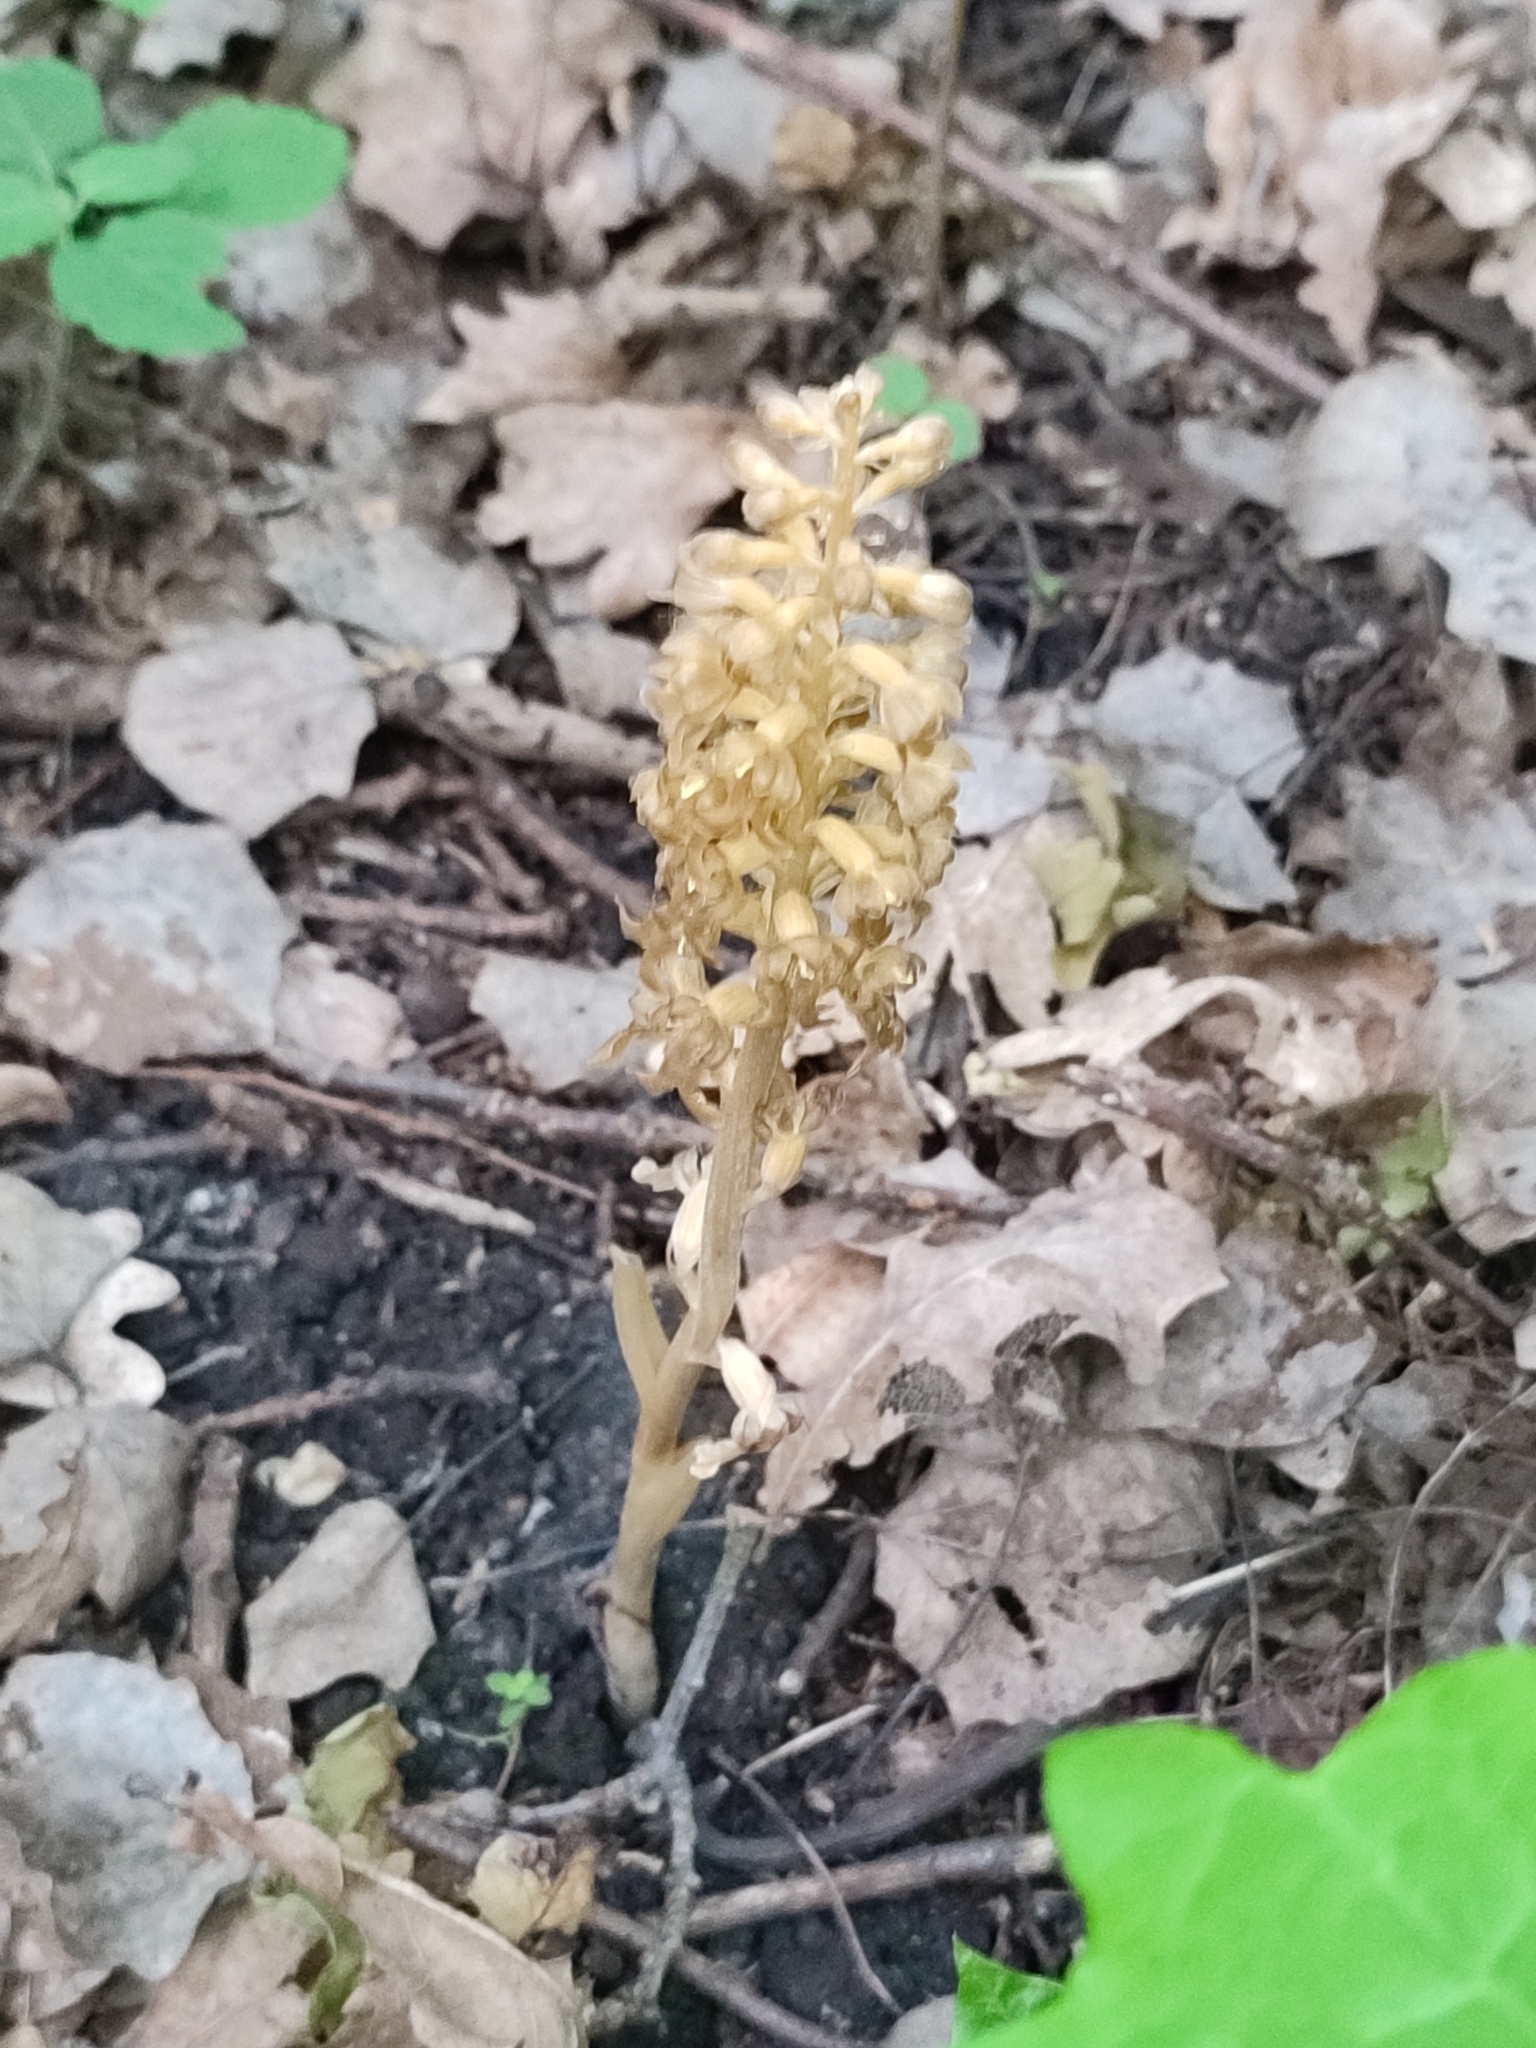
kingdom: Plantae
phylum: Tracheophyta
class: Liliopsida
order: Asparagales
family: Orchidaceae
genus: Neottia
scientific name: Neottia nidus-avis
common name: Bird's-nest orchid
